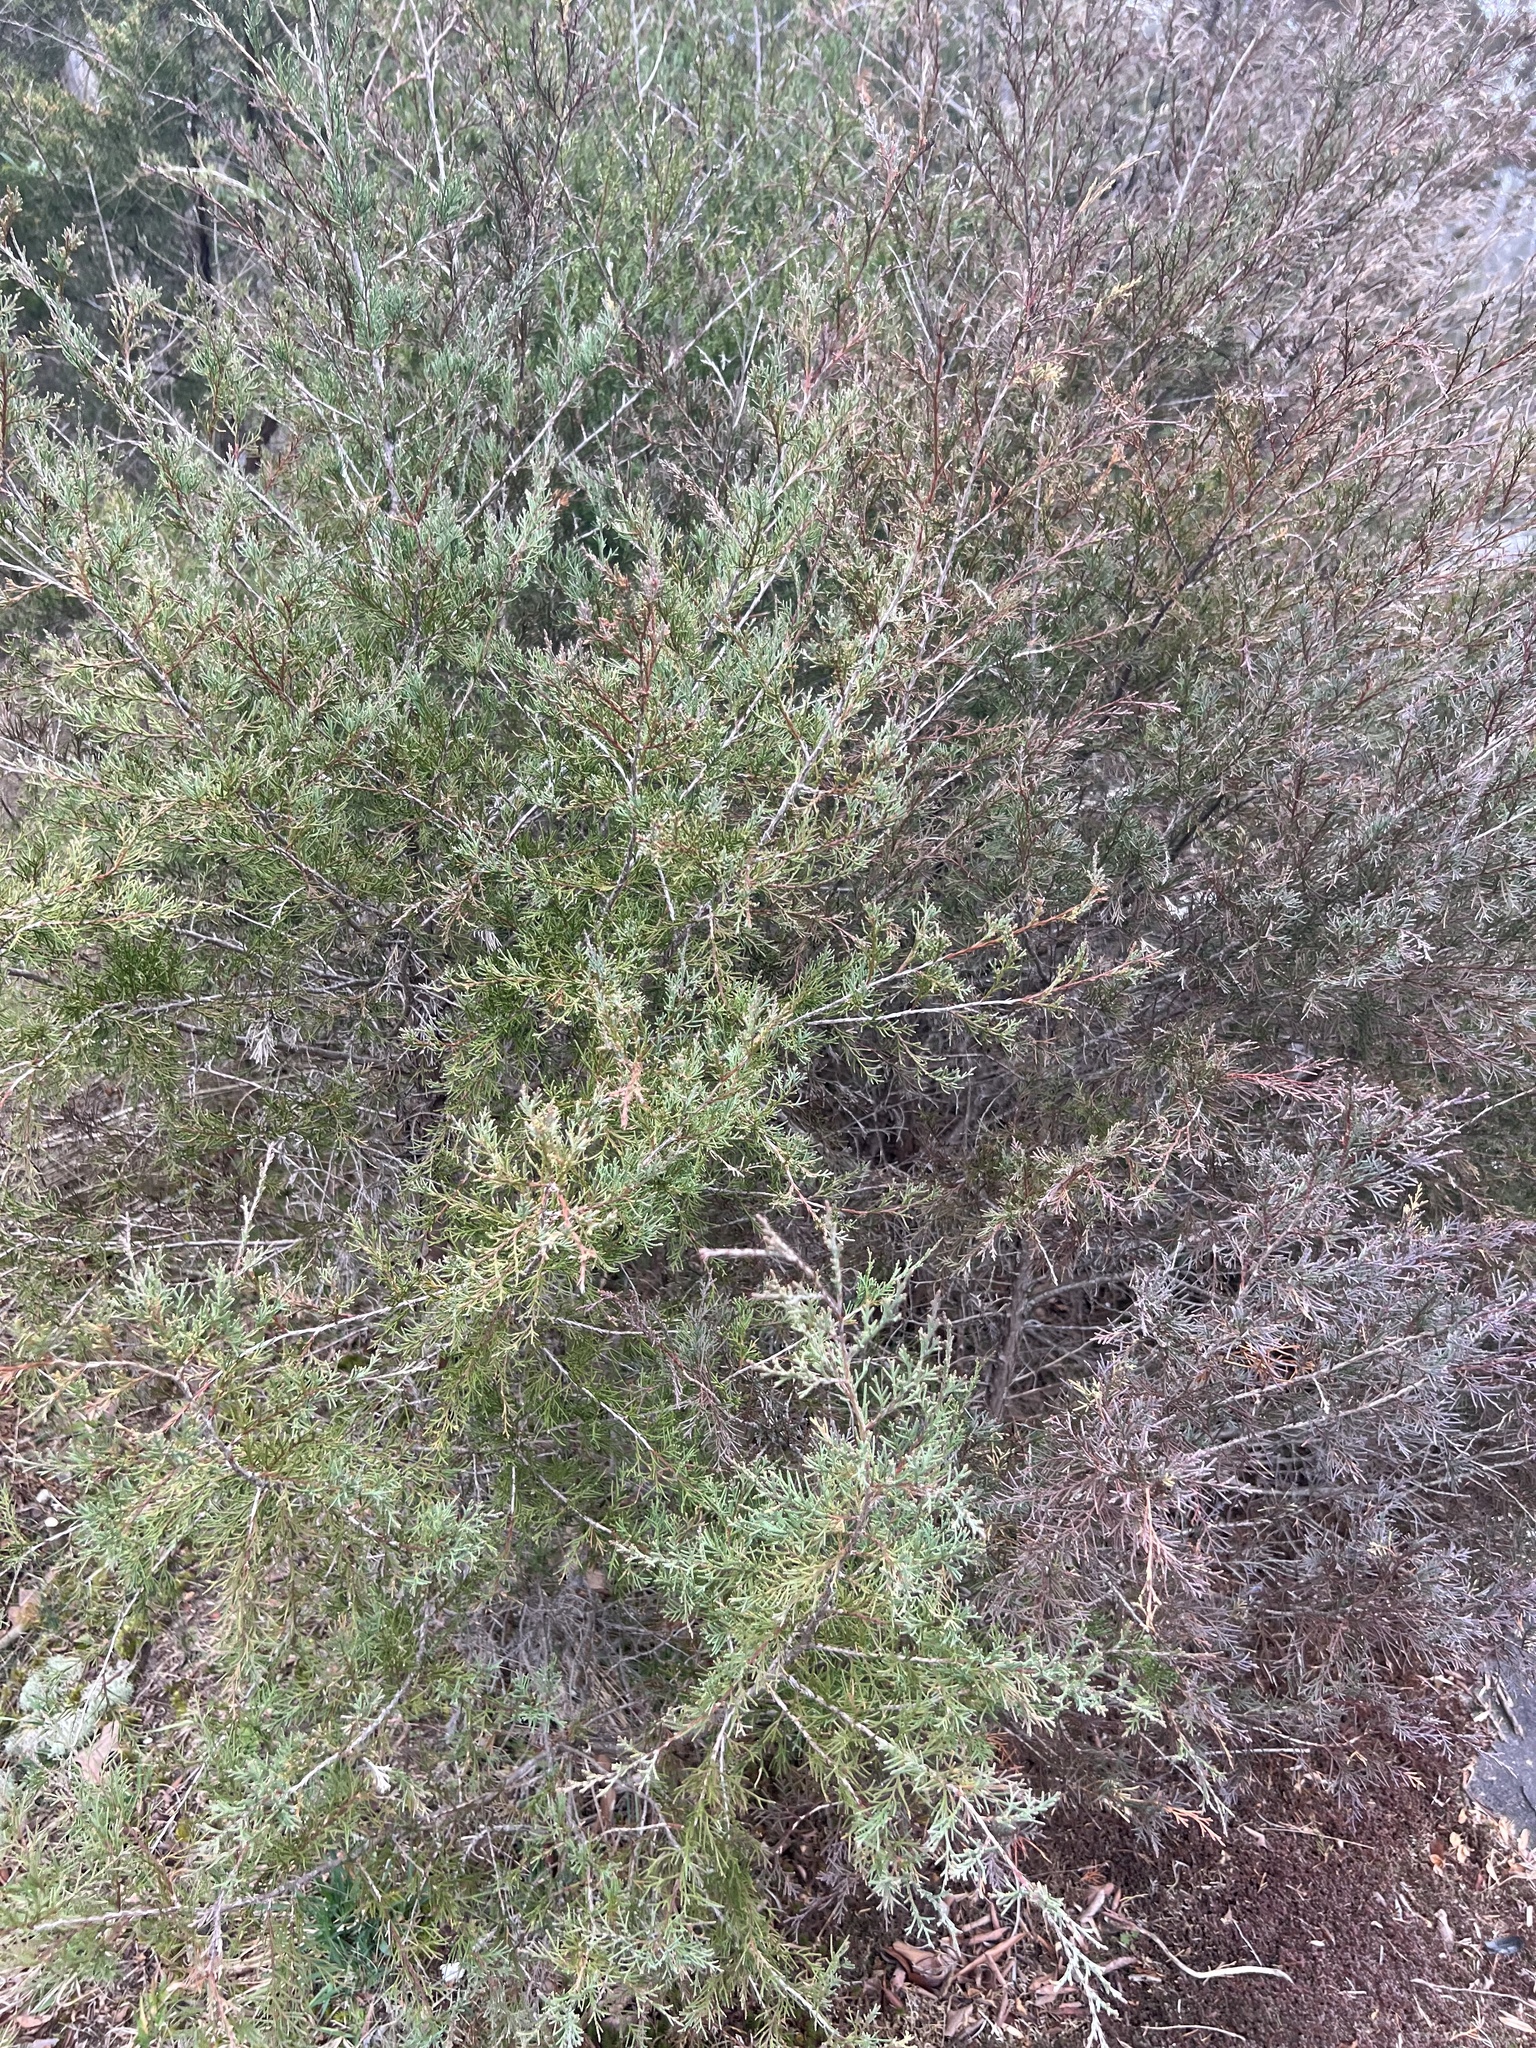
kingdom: Plantae
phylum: Tracheophyta
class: Pinopsida
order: Pinales
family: Cupressaceae
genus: Juniperus
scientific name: Juniperus virginiana
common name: Red juniper
